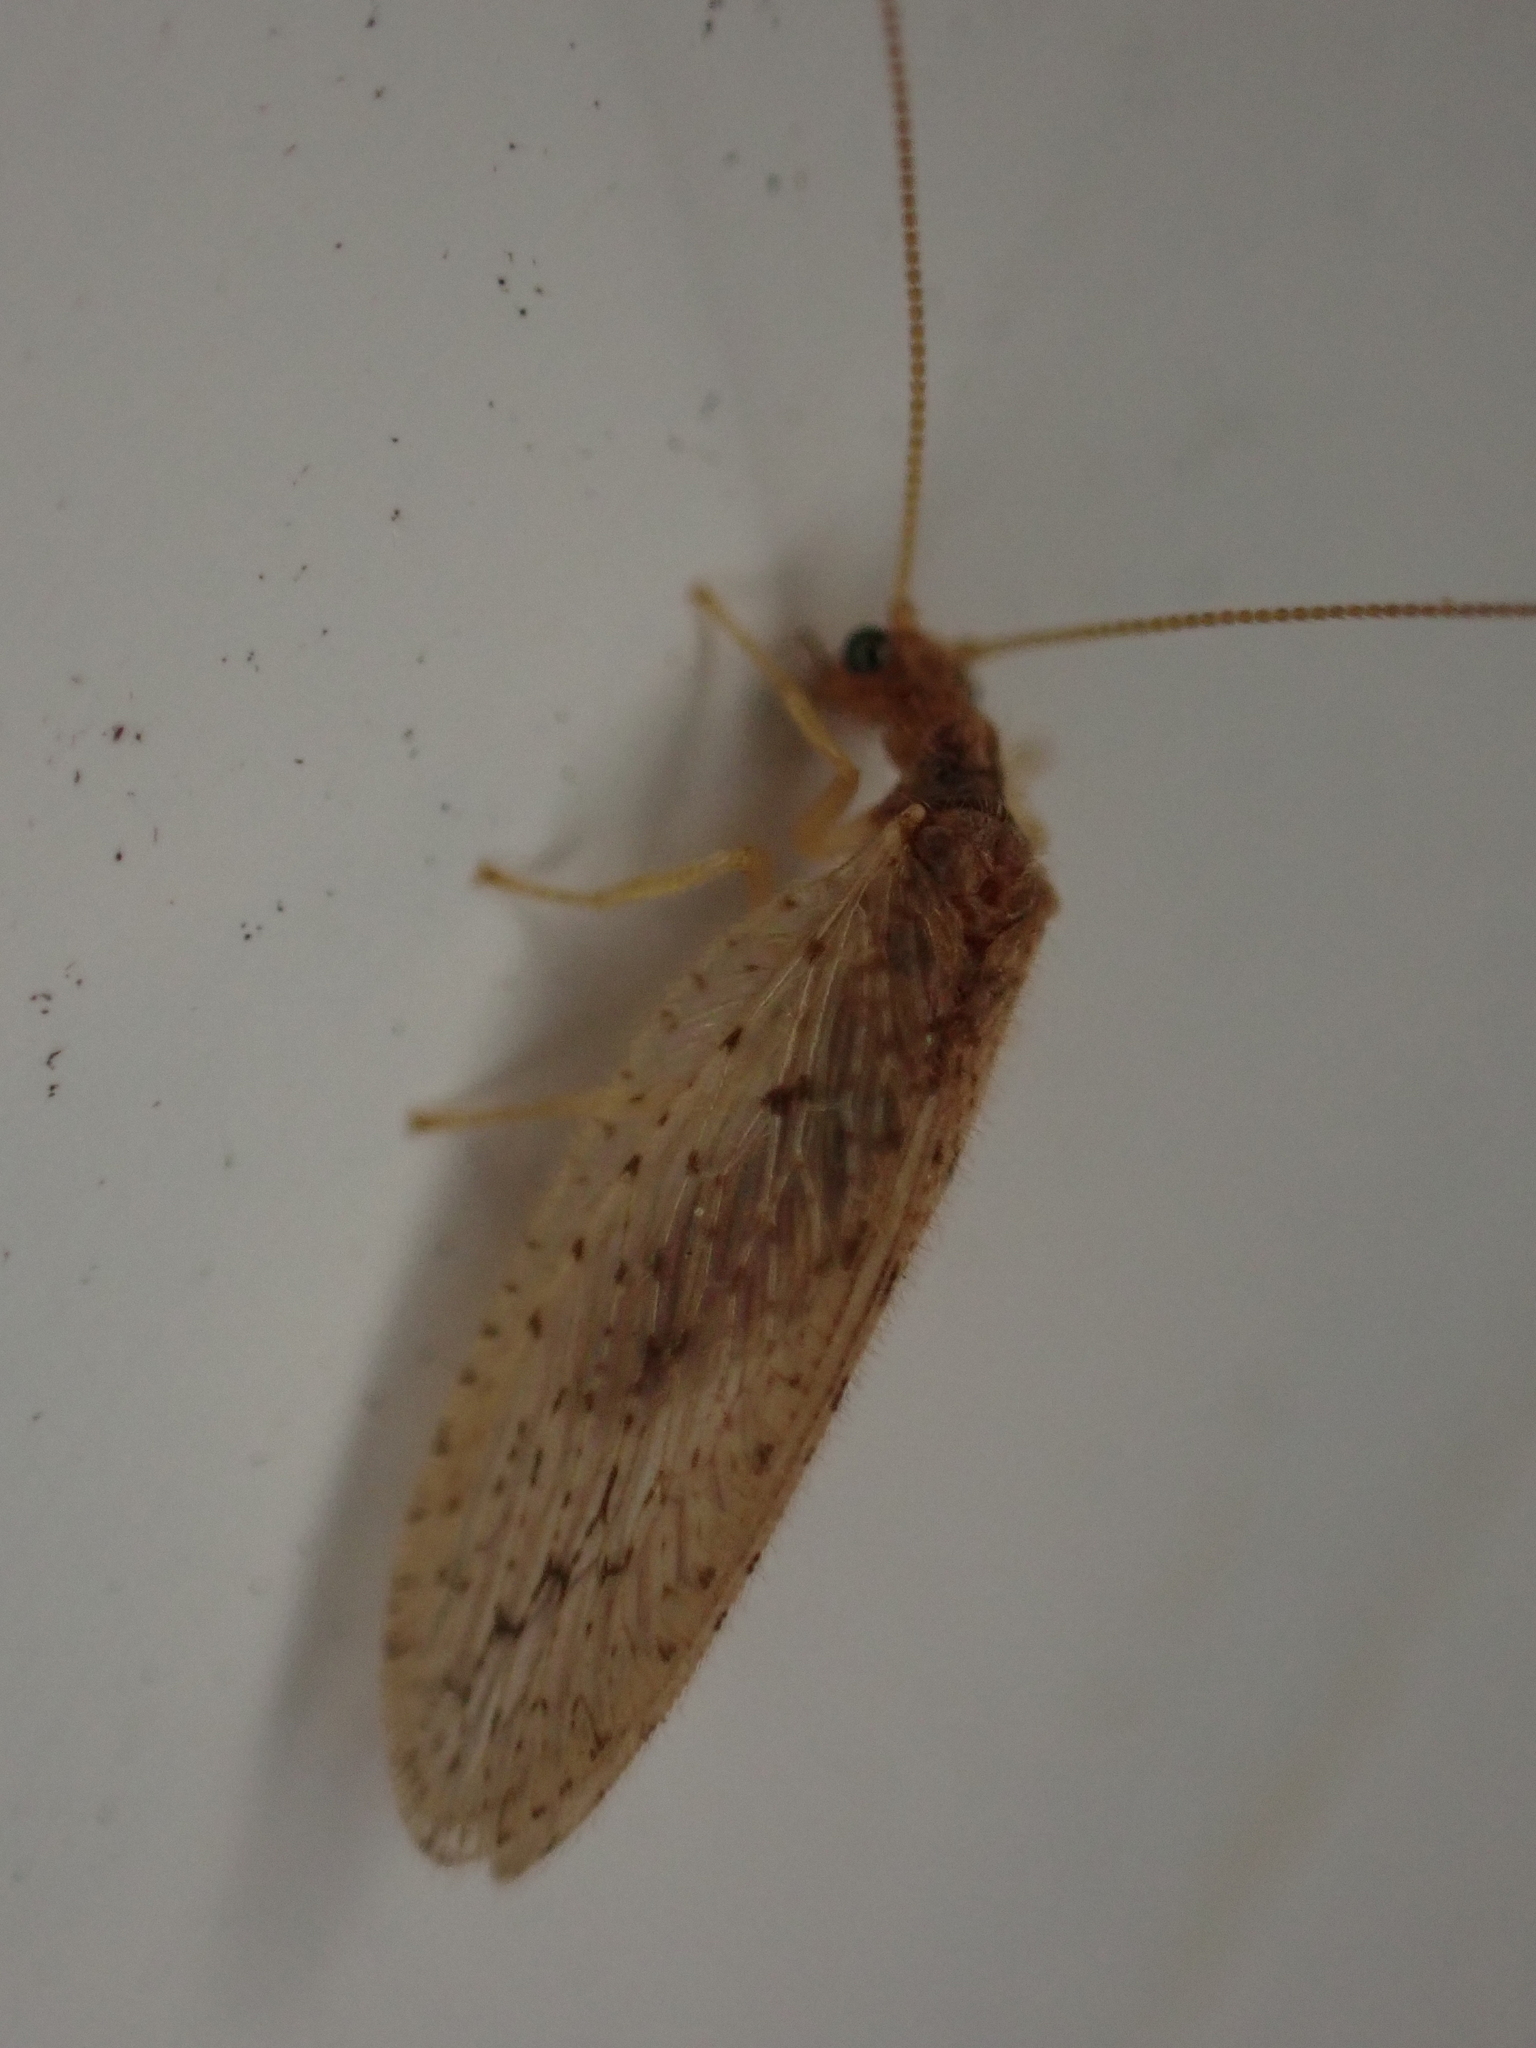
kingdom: Animalia
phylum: Arthropoda
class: Insecta
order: Neuroptera
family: Hemerobiidae
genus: Micromus
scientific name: Micromus subanticus
